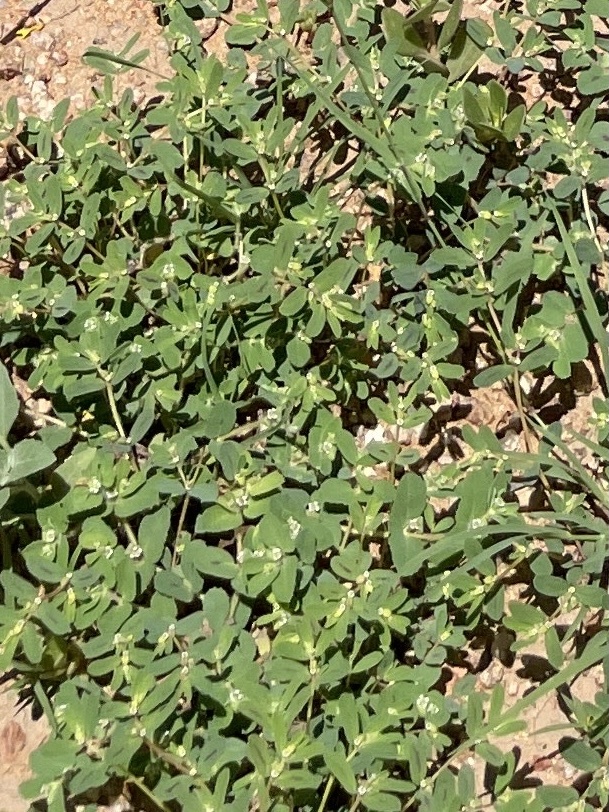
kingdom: Plantae
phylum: Tracheophyta
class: Magnoliopsida
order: Malpighiales
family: Euphorbiaceae
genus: Euphorbia
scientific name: Euphorbia serpillifolia
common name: Thyme-leaf spurge
